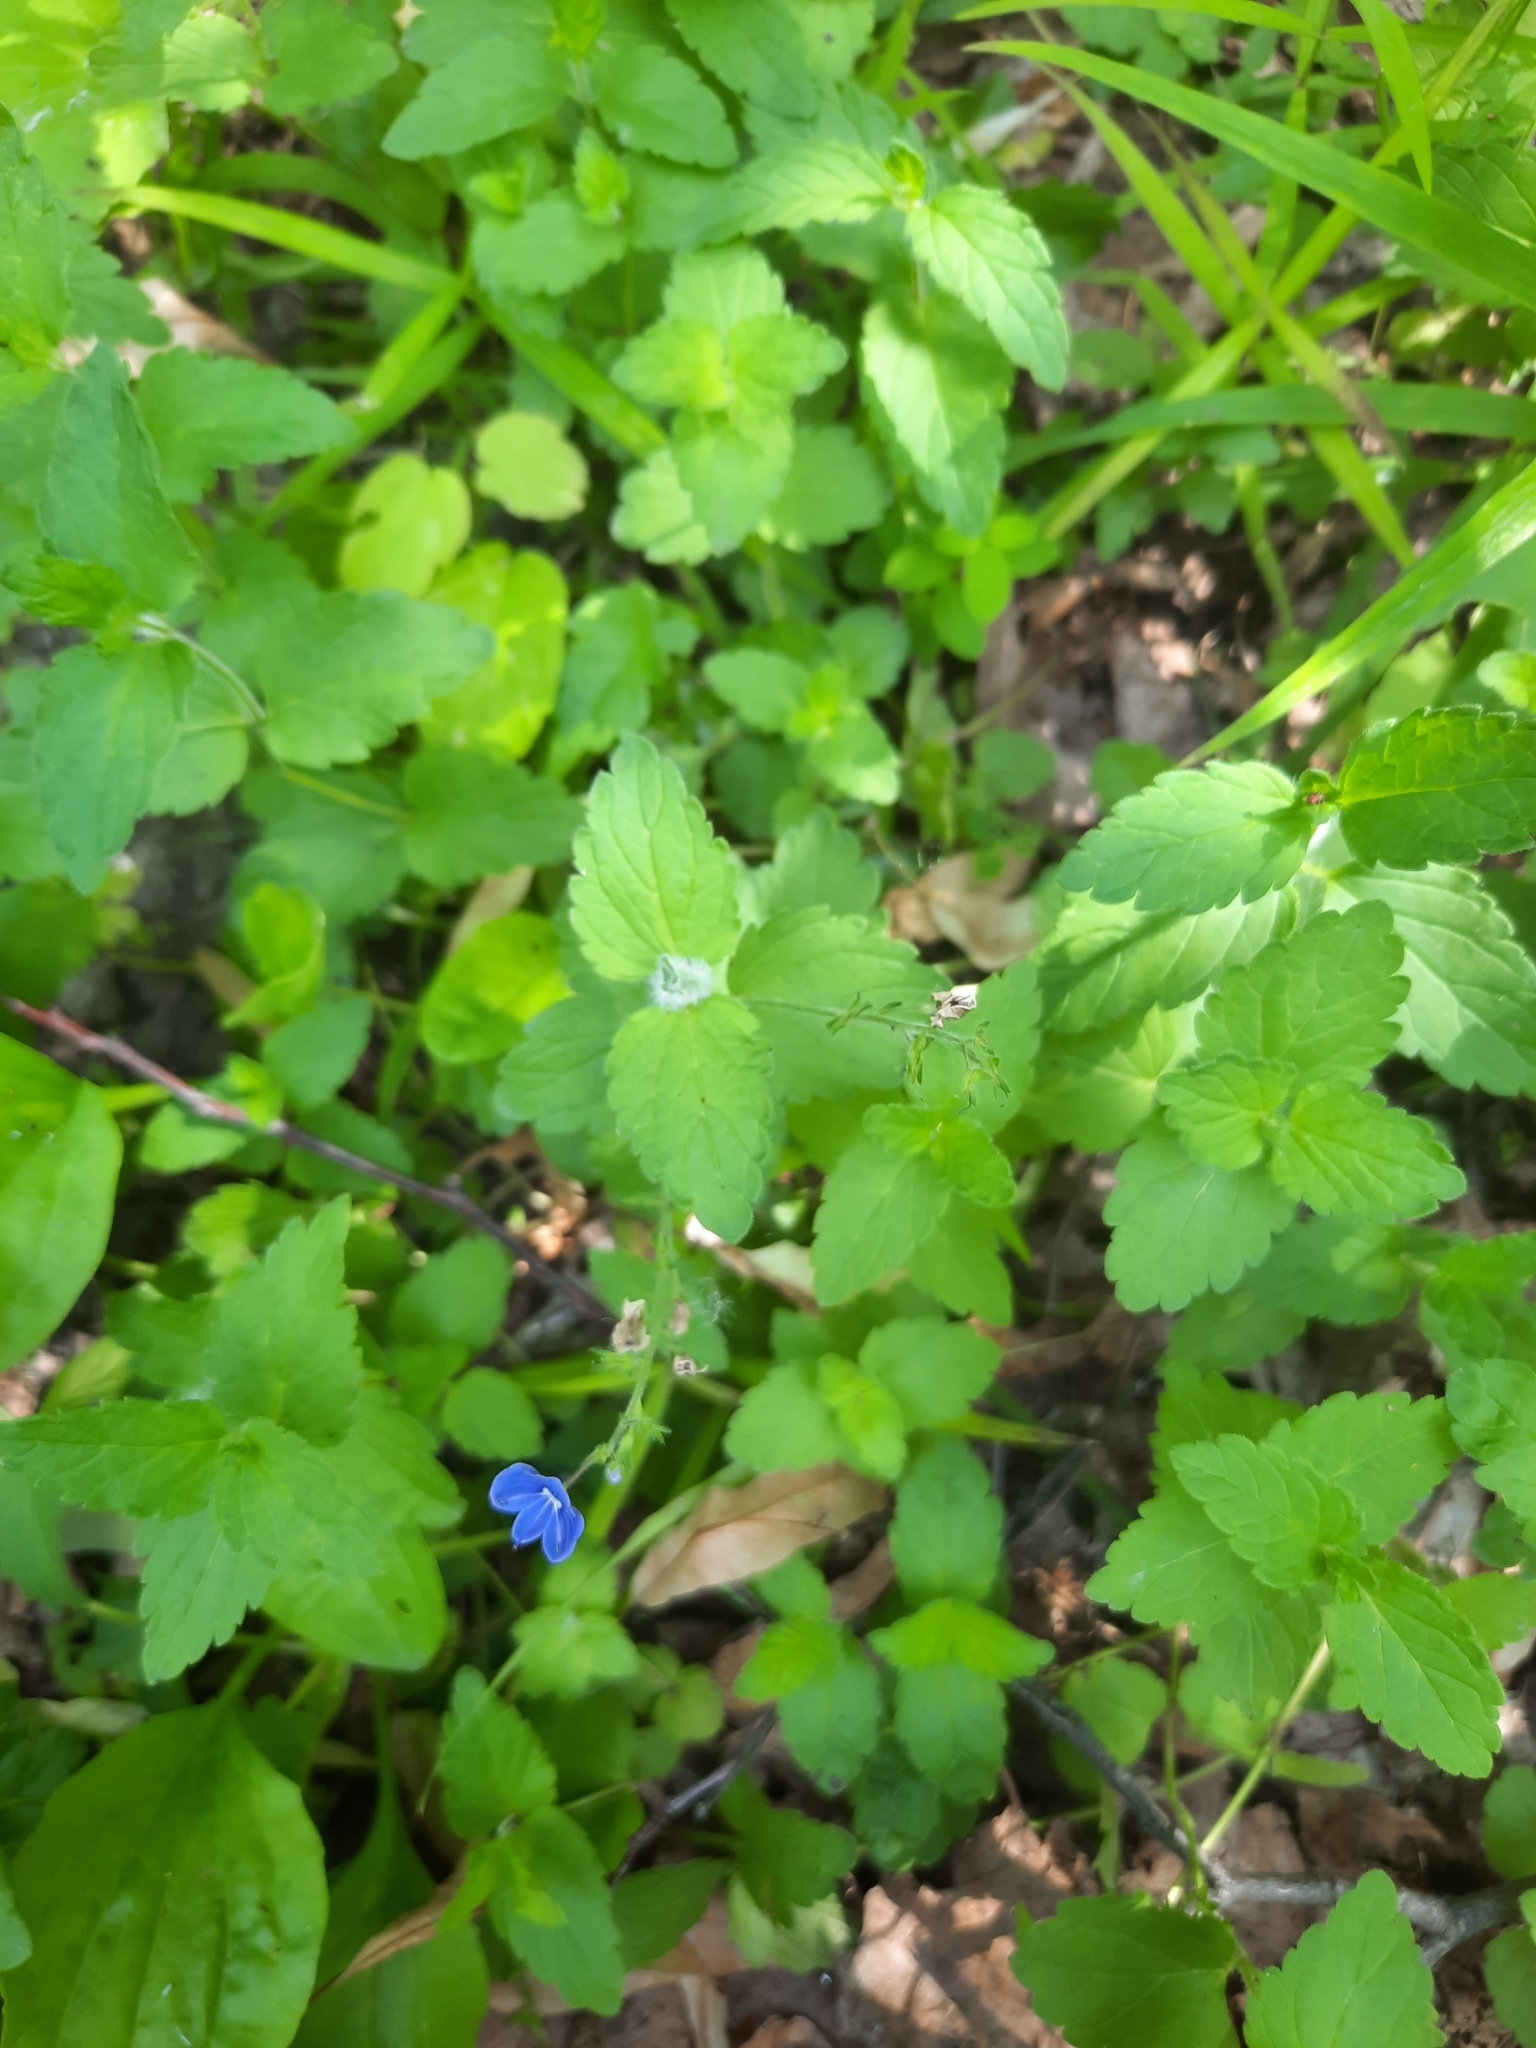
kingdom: Plantae
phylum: Tracheophyta
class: Magnoliopsida
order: Lamiales
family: Plantaginaceae
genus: Veronica
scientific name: Veronica chamaedrys
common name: Germander speedwell
